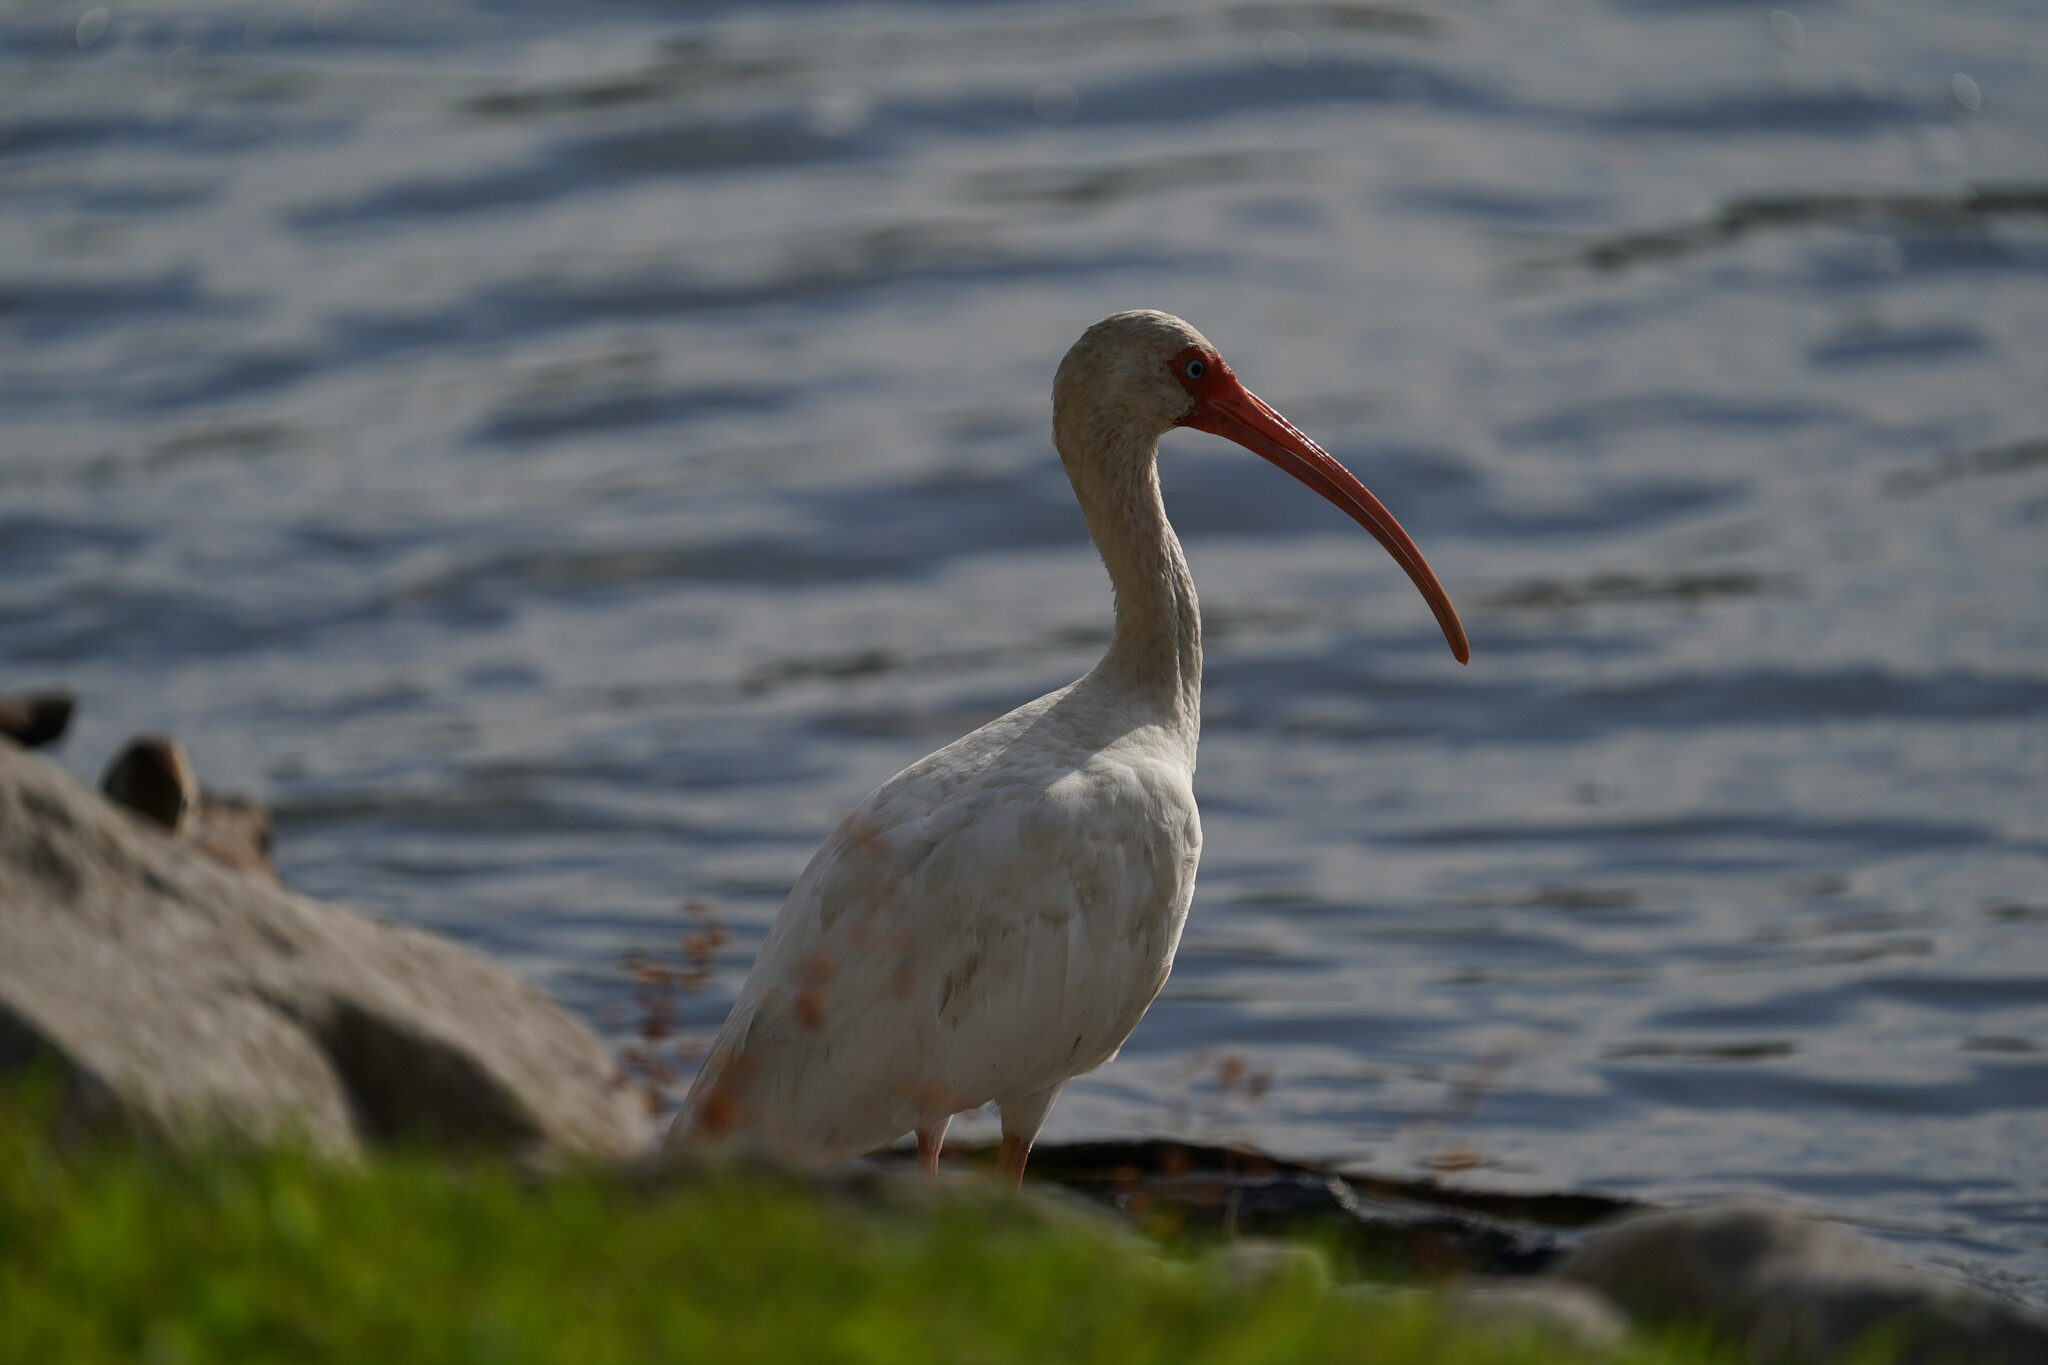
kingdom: Animalia
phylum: Chordata
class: Aves
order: Pelecaniformes
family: Threskiornithidae
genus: Eudocimus
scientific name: Eudocimus albus
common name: White ibis
